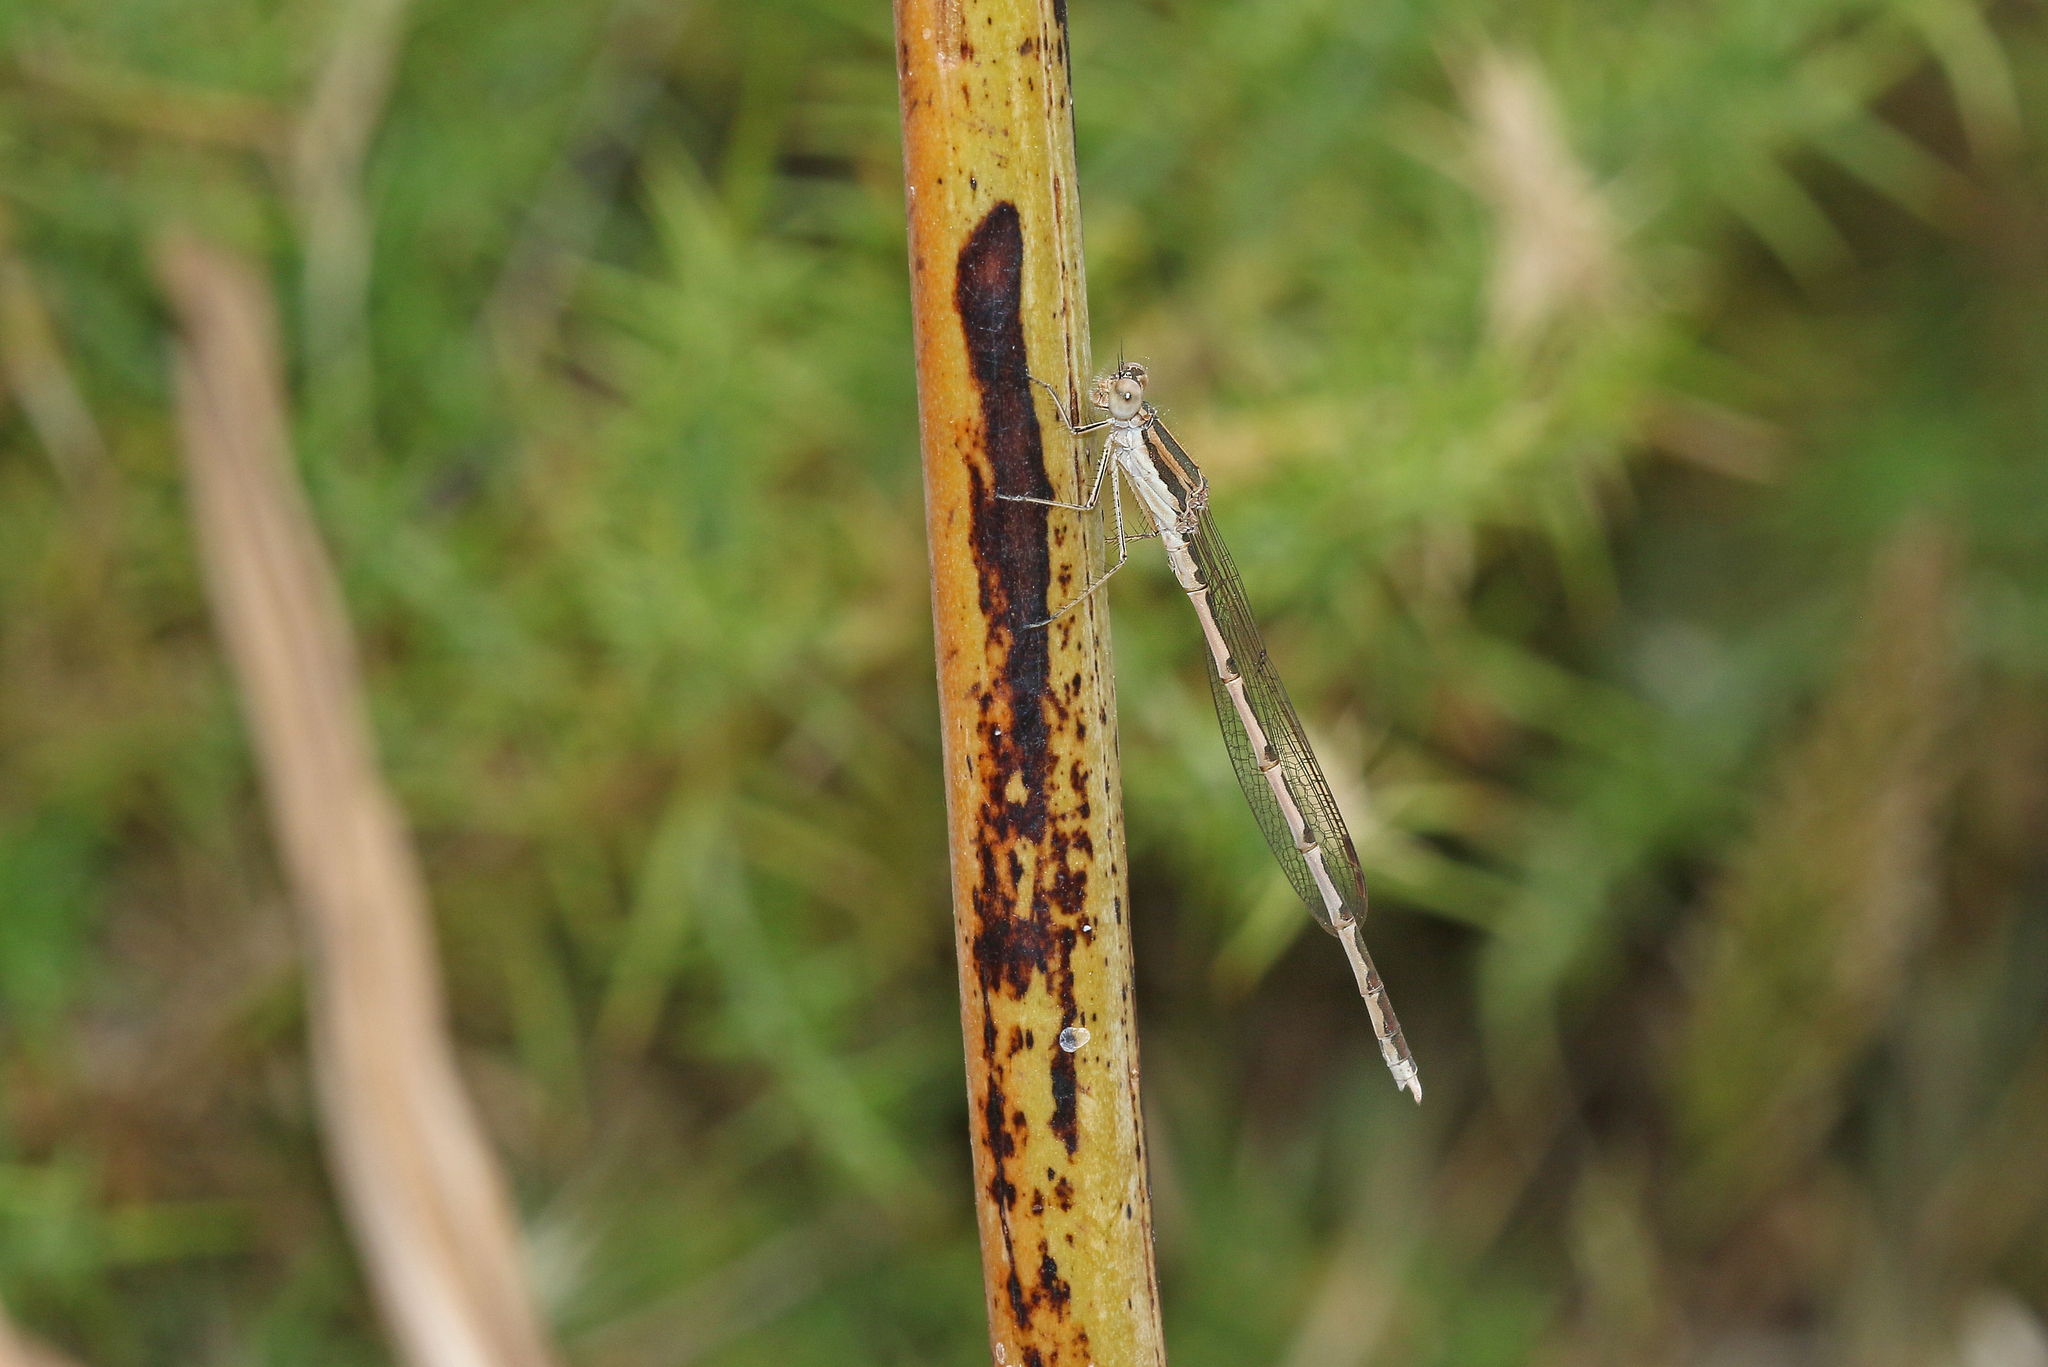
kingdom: Animalia
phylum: Arthropoda
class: Insecta
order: Odonata
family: Lestidae
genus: Sympecma
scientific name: Sympecma fusca
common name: Common winter damsel
